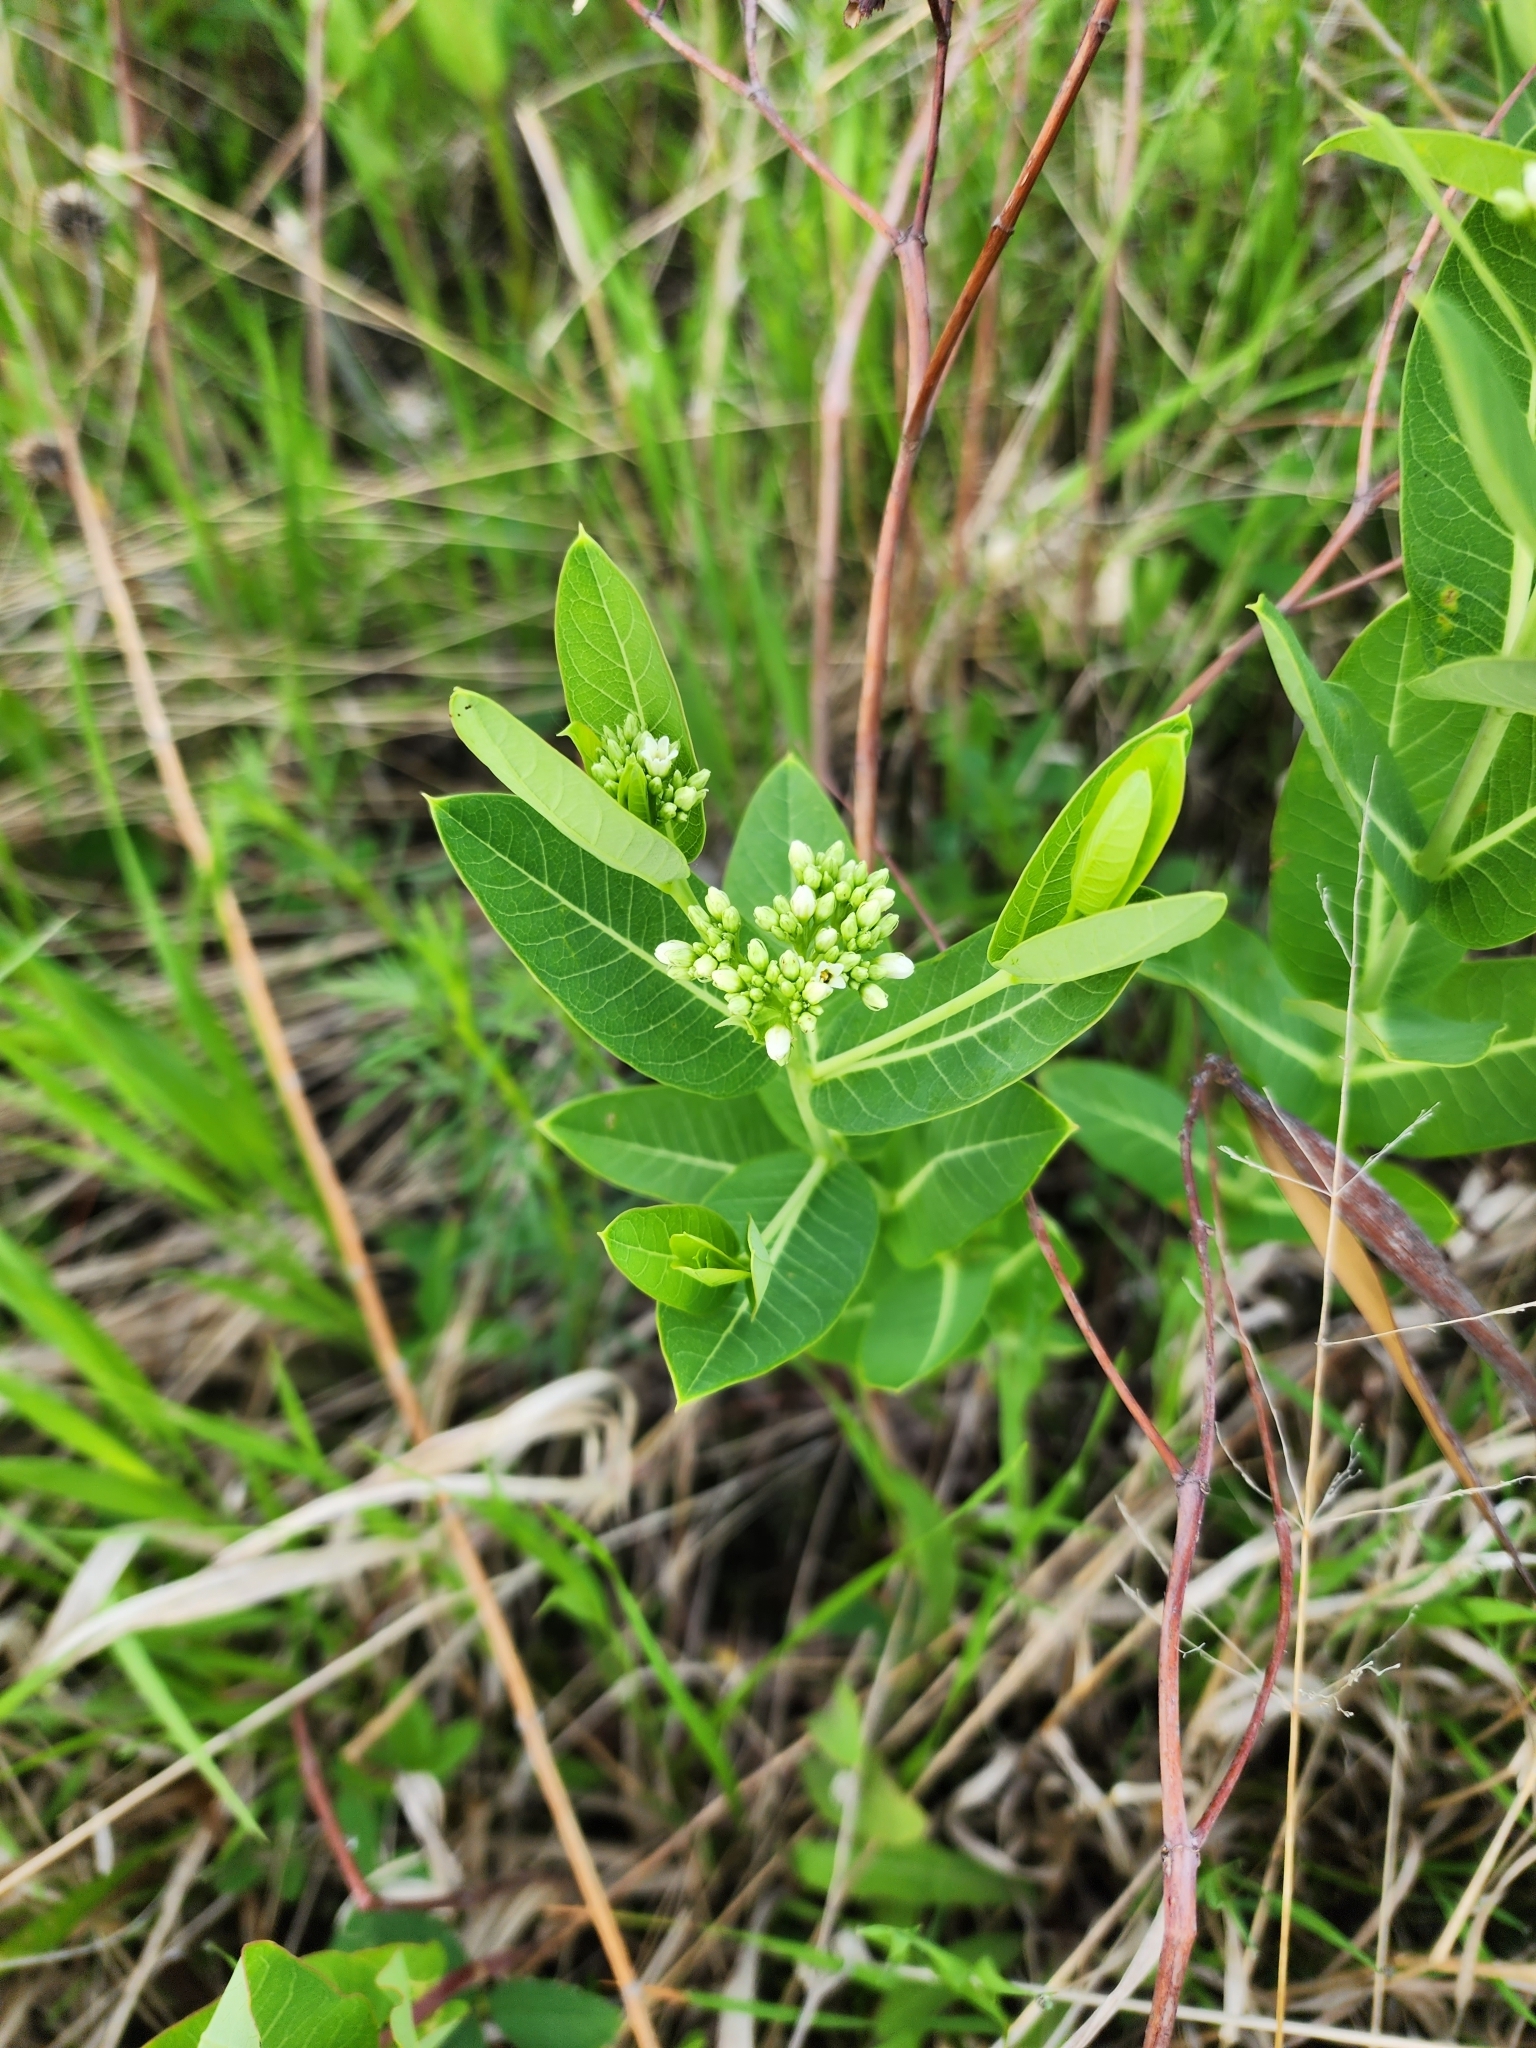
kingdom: Plantae
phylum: Tracheophyta
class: Magnoliopsida
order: Gentianales
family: Apocynaceae
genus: Apocynum
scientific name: Apocynum cannabinum
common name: Hemp dogbane
